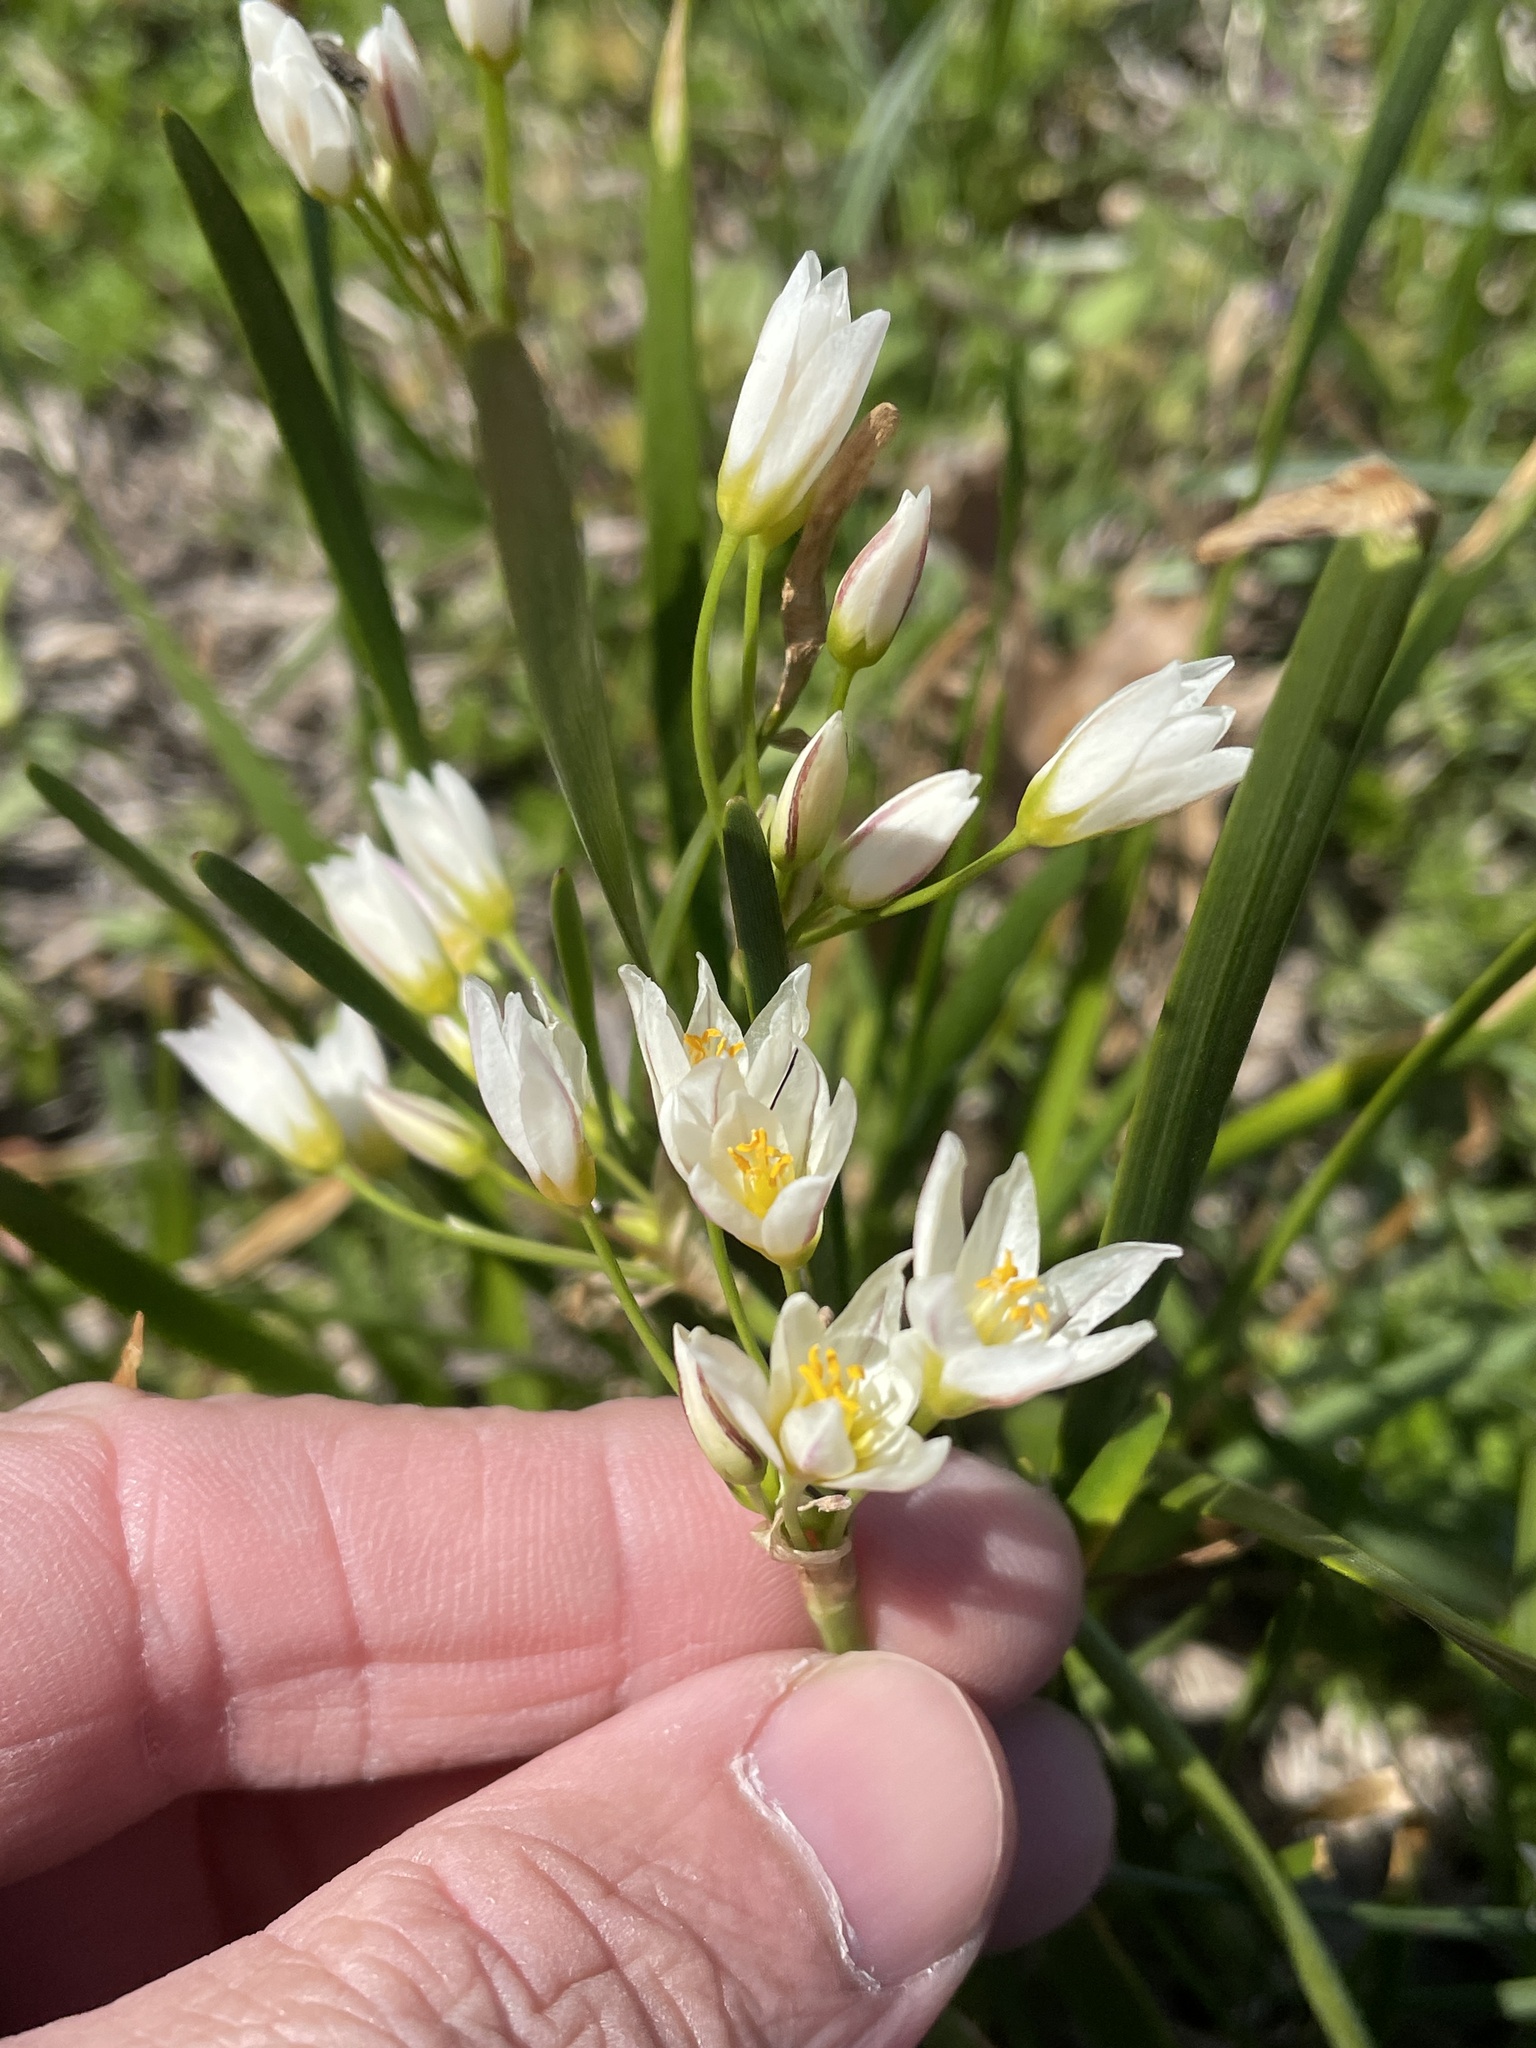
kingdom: Plantae
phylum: Tracheophyta
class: Liliopsida
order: Asparagales
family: Amaryllidaceae
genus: Nothoscordum
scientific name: Nothoscordum bivalve
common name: Crow-poison
